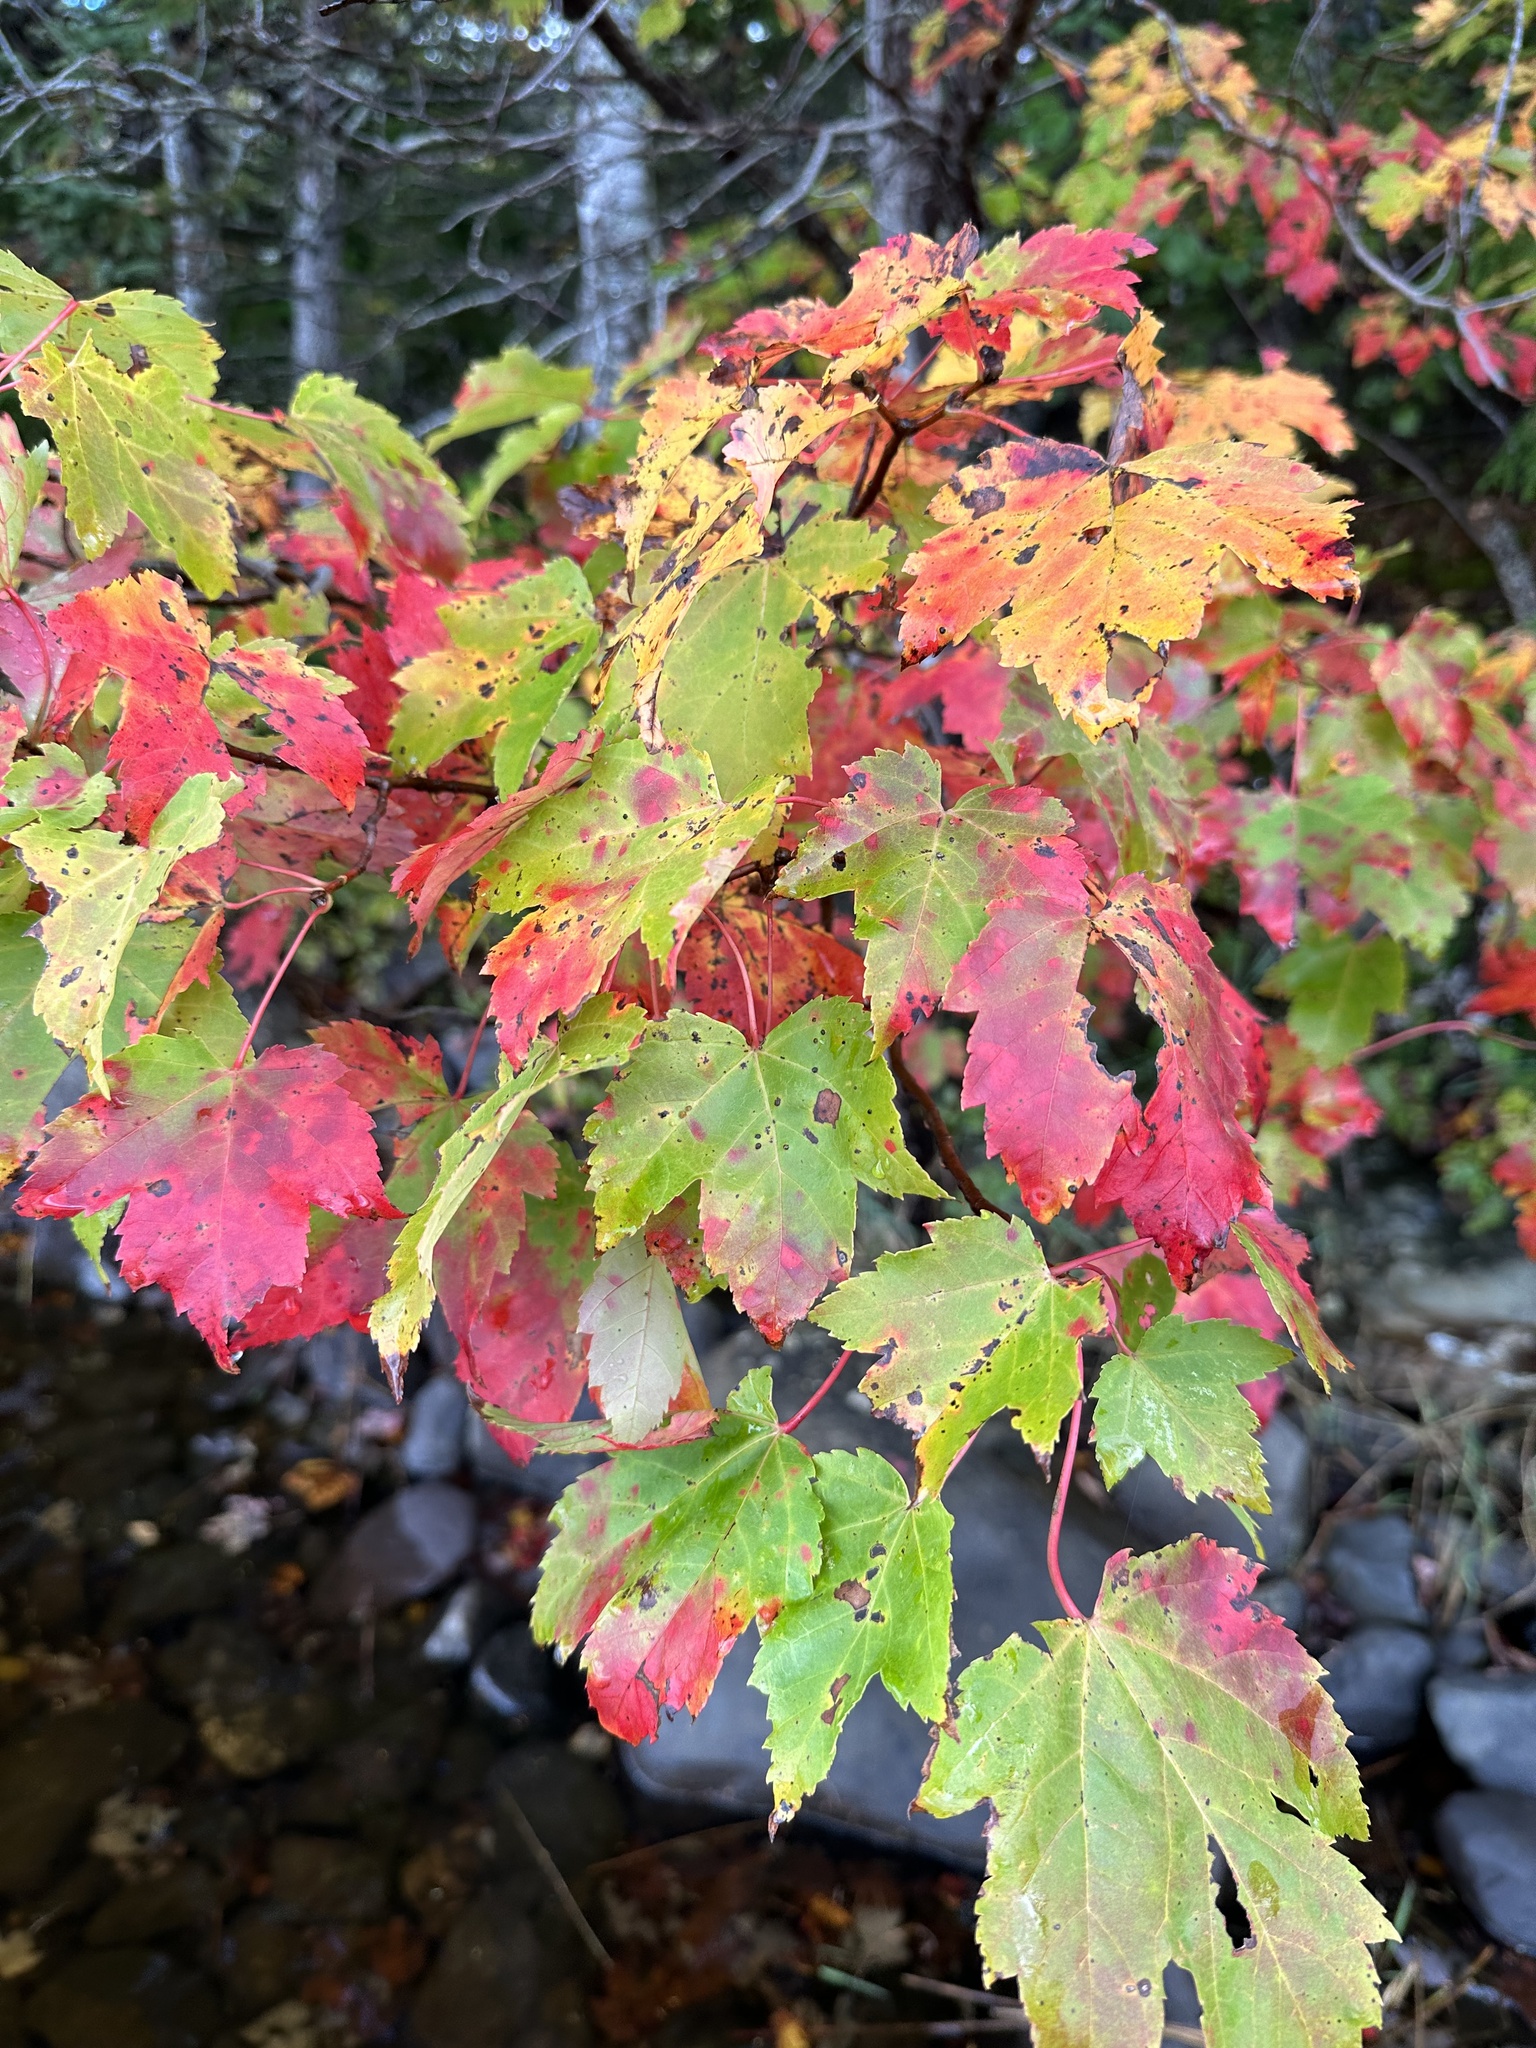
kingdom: Plantae
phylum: Tracheophyta
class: Magnoliopsida
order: Sapindales
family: Sapindaceae
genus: Acer
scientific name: Acer rubrum
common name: Red maple
